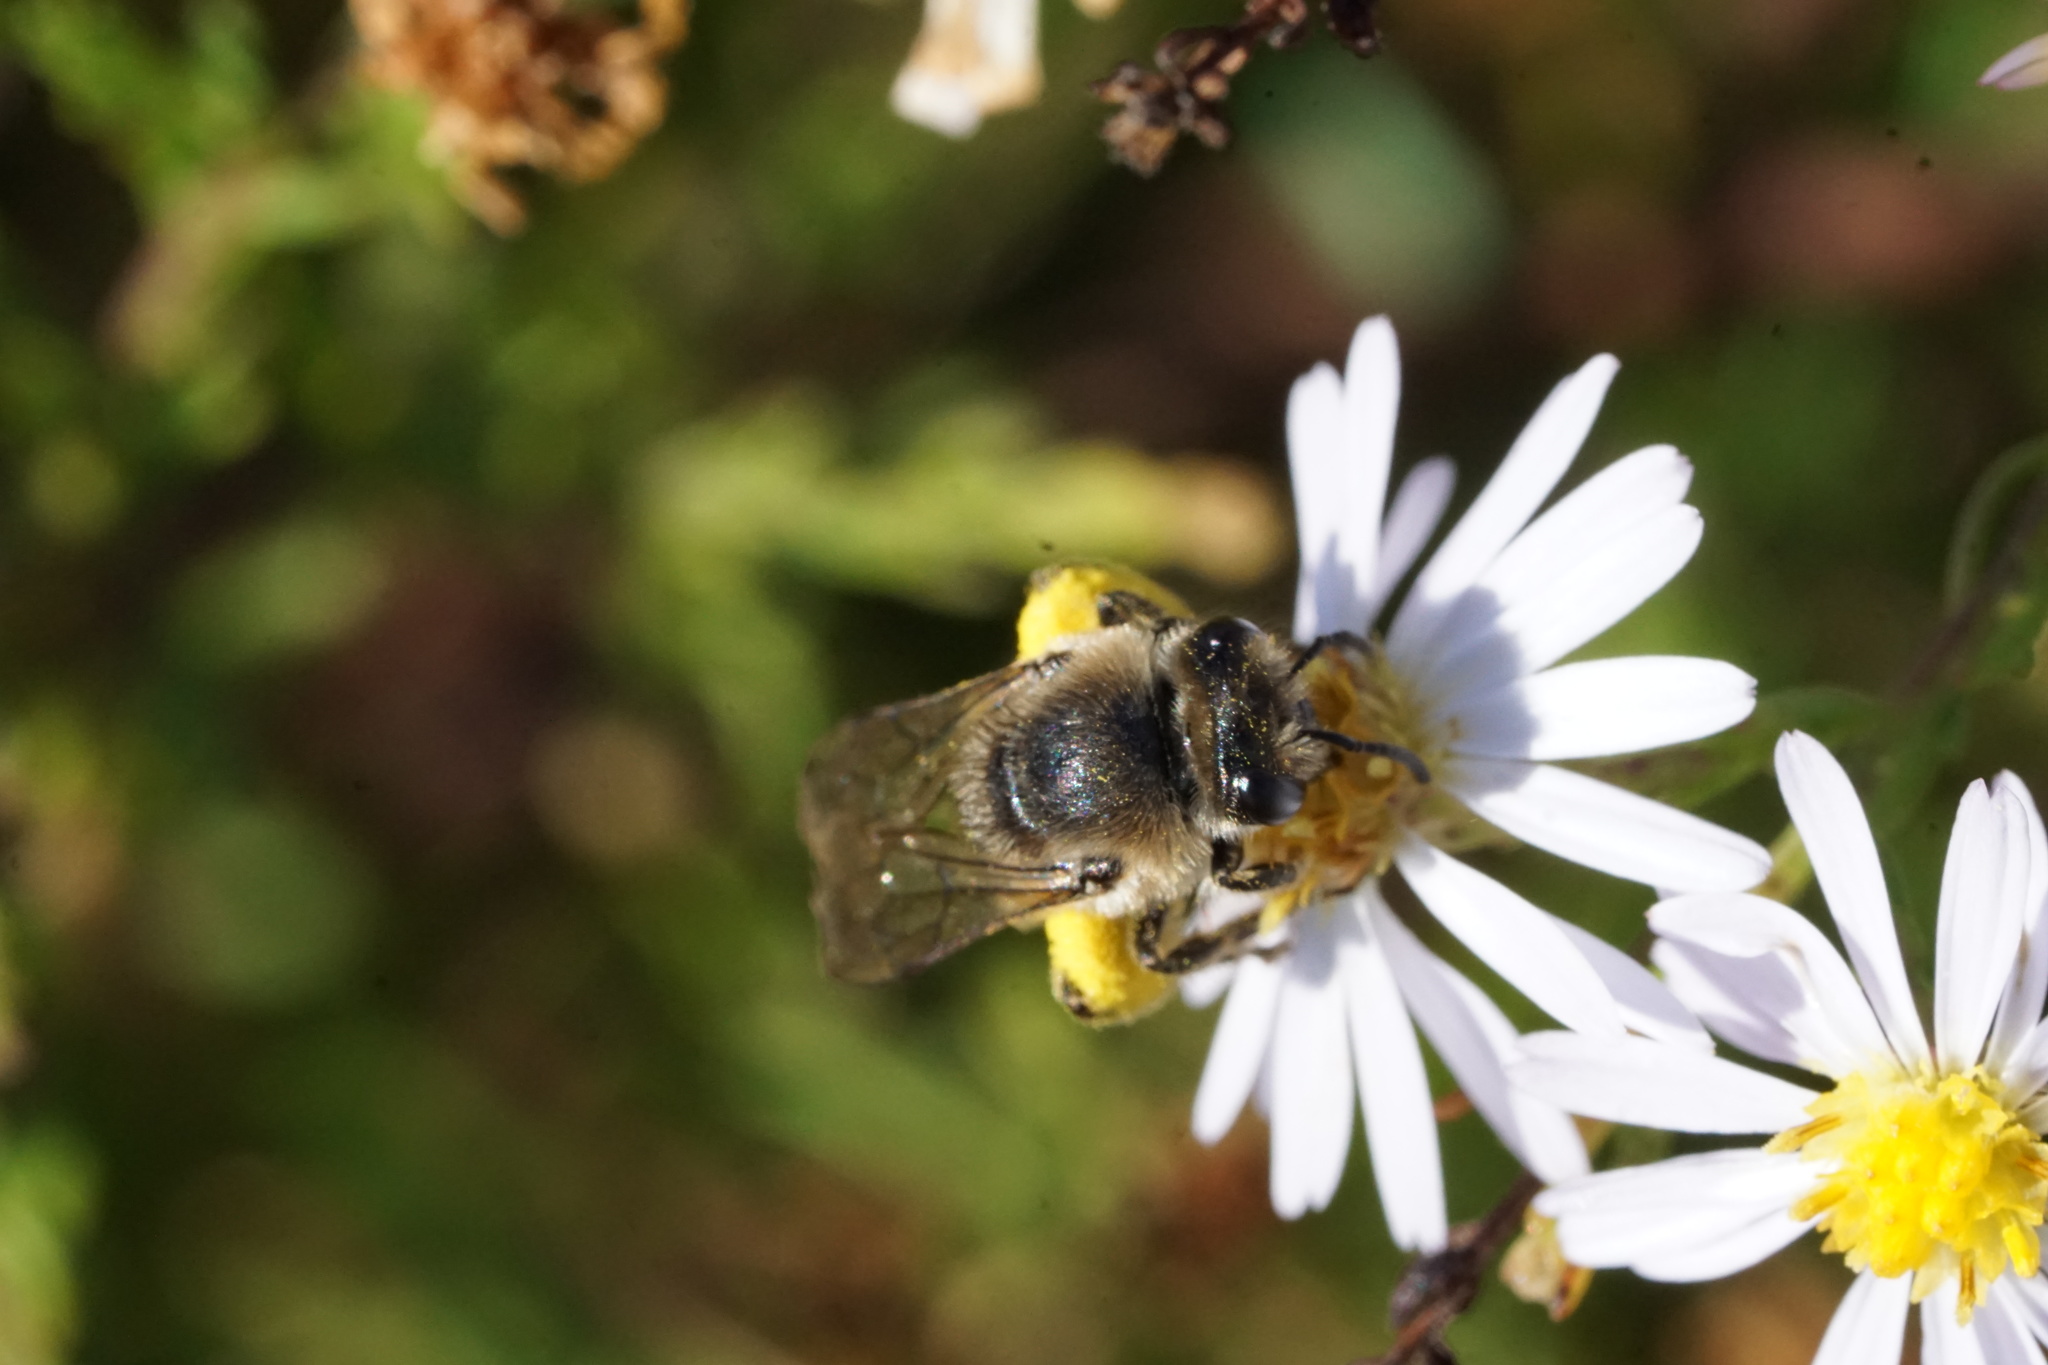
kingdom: Animalia
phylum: Arthropoda
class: Insecta
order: Hymenoptera
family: Colletidae
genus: Colletes
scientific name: Colletes compactus
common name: Aster cellophane bee
